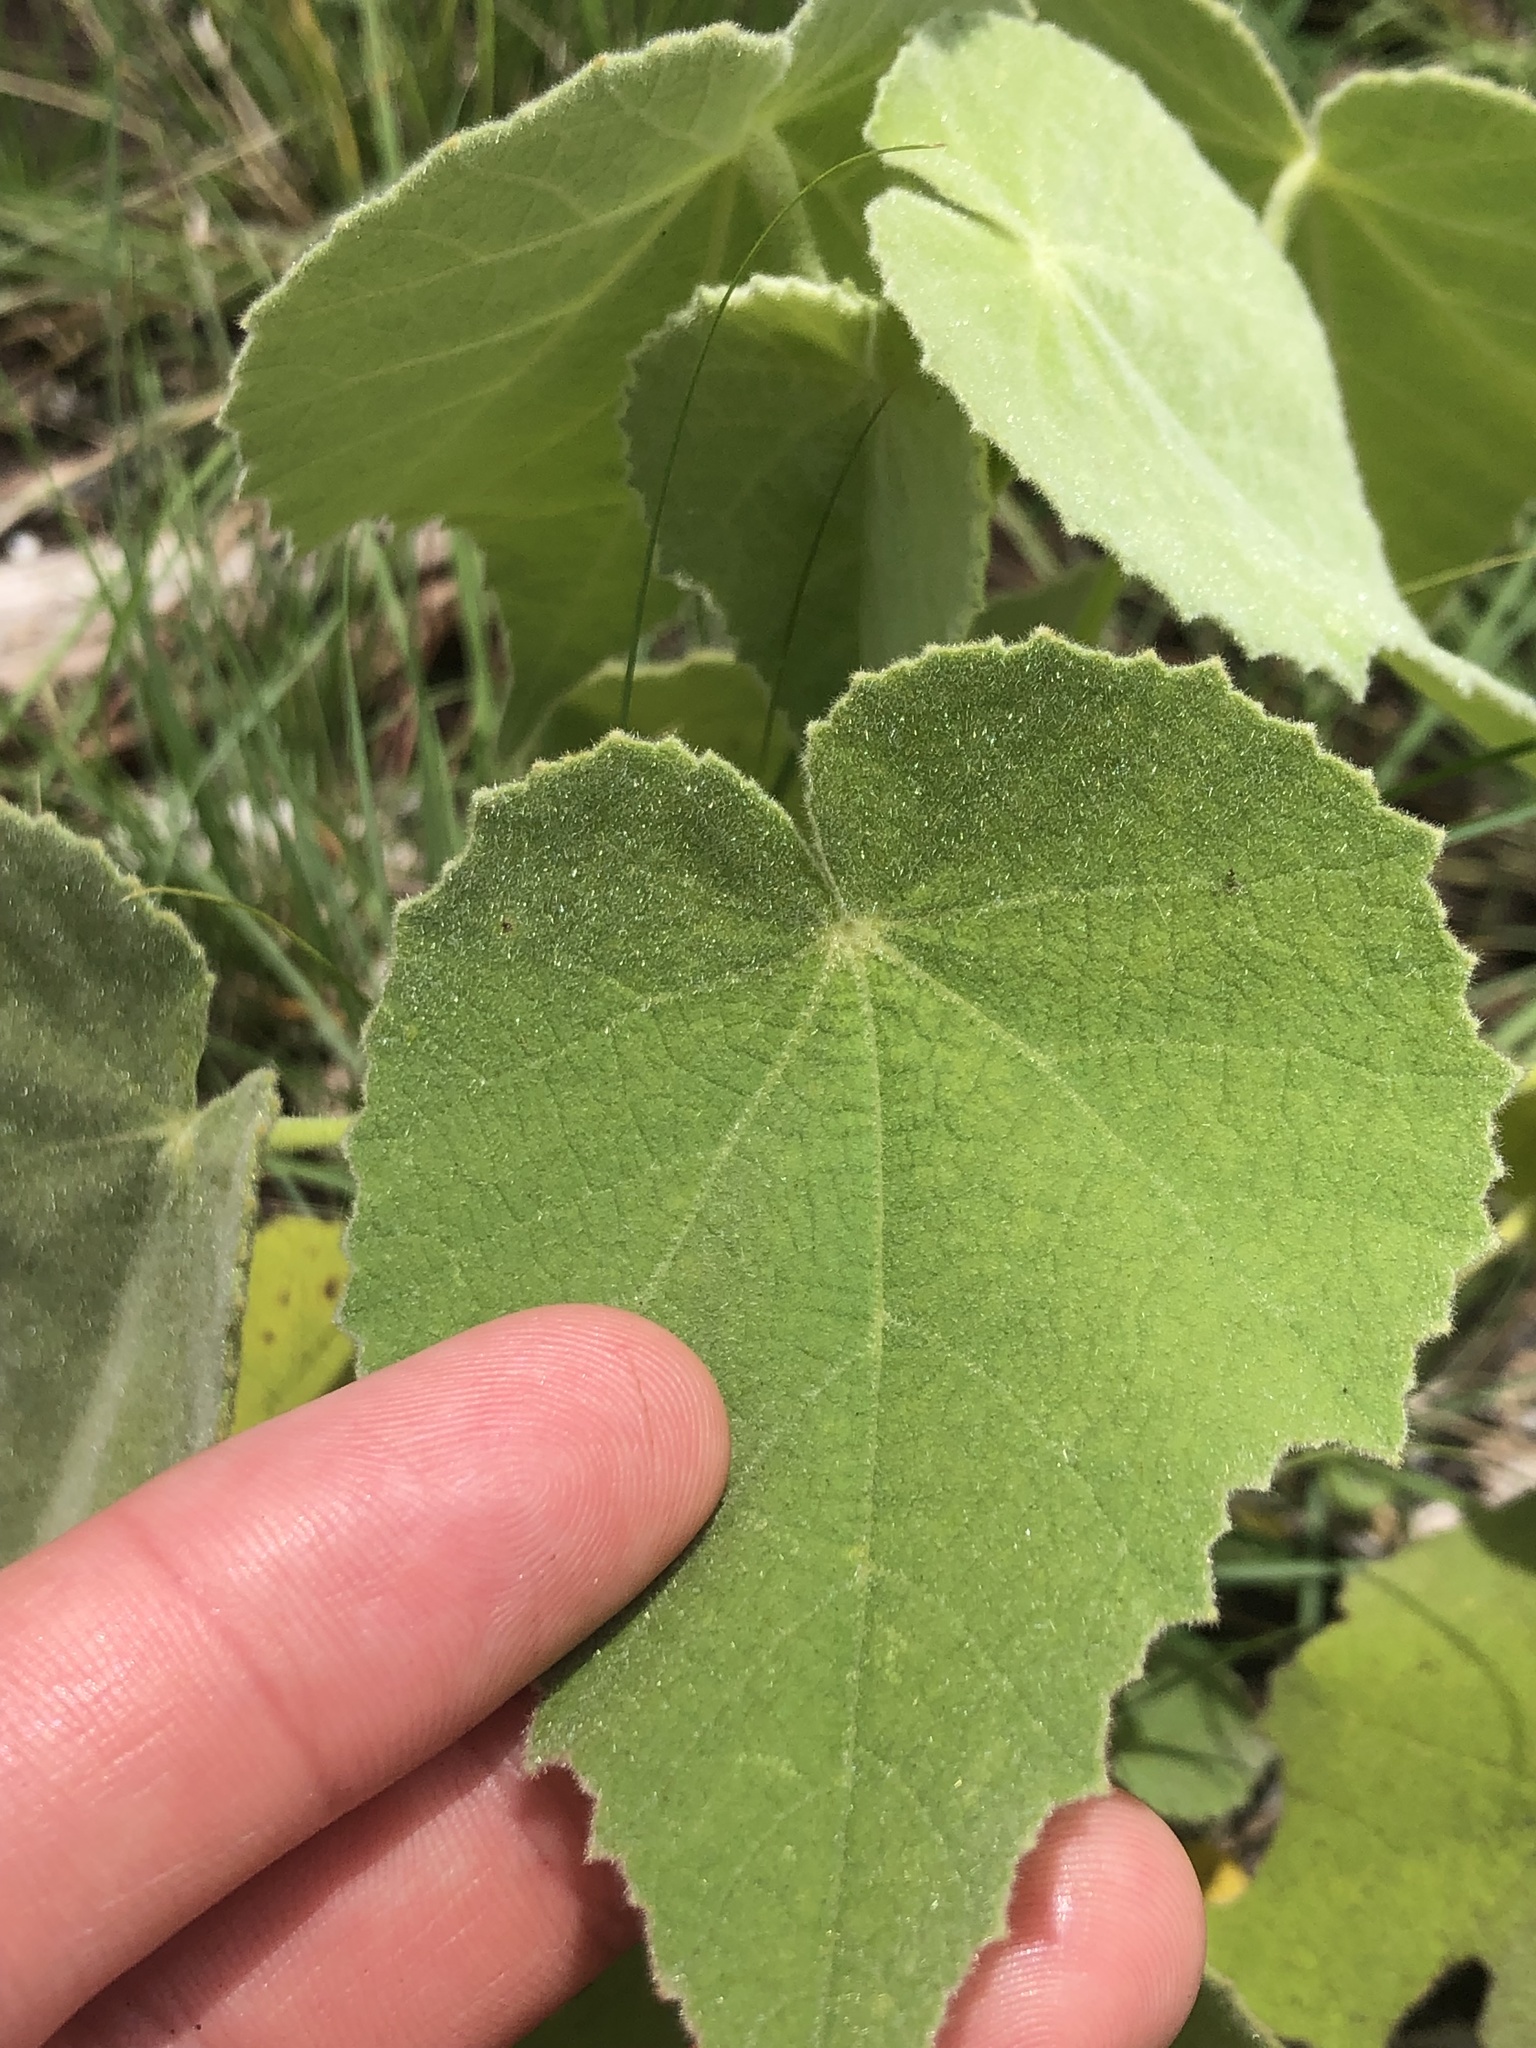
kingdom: Plantae
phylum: Tracheophyta
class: Magnoliopsida
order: Malvales
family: Malvaceae
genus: Allowissadula
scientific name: Allowissadula holosericea
